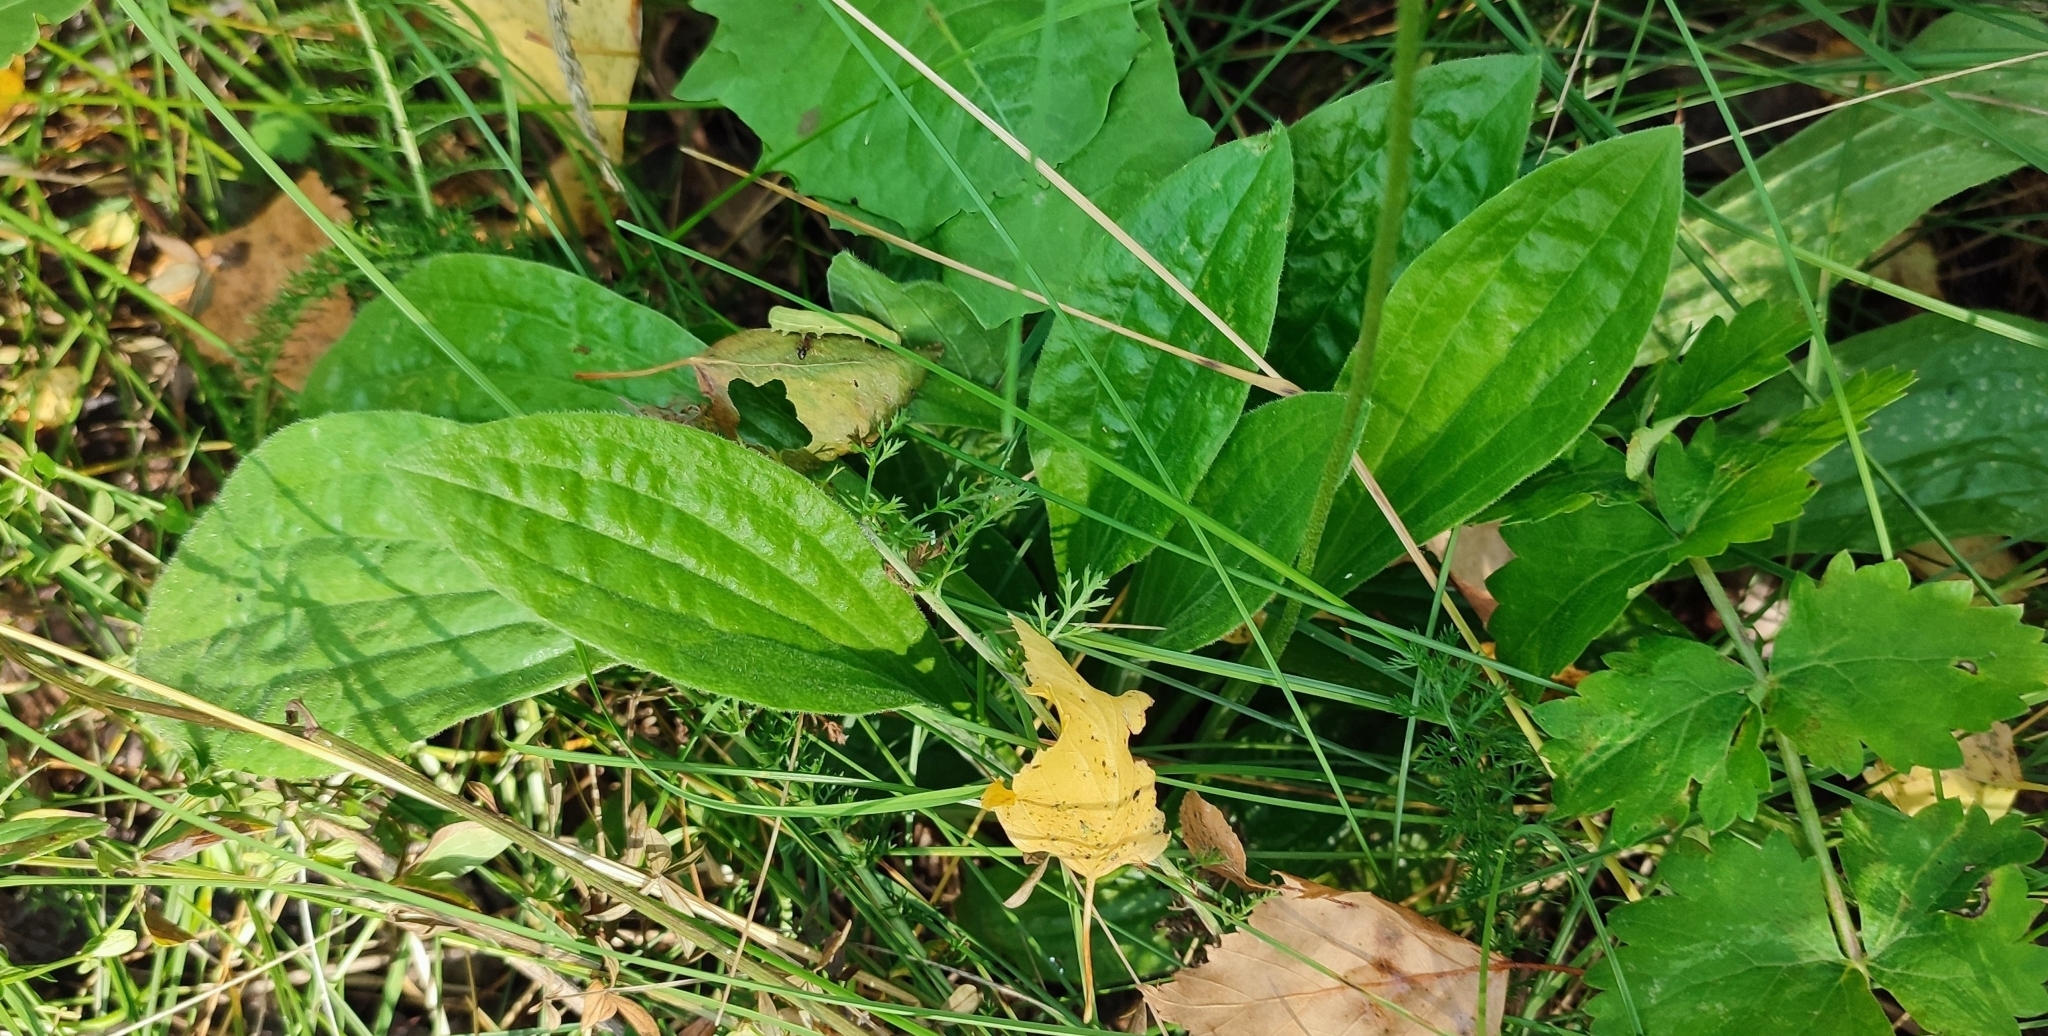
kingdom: Plantae
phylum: Tracheophyta
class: Magnoliopsida
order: Lamiales
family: Plantaginaceae
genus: Plantago
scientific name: Plantago urvillei
